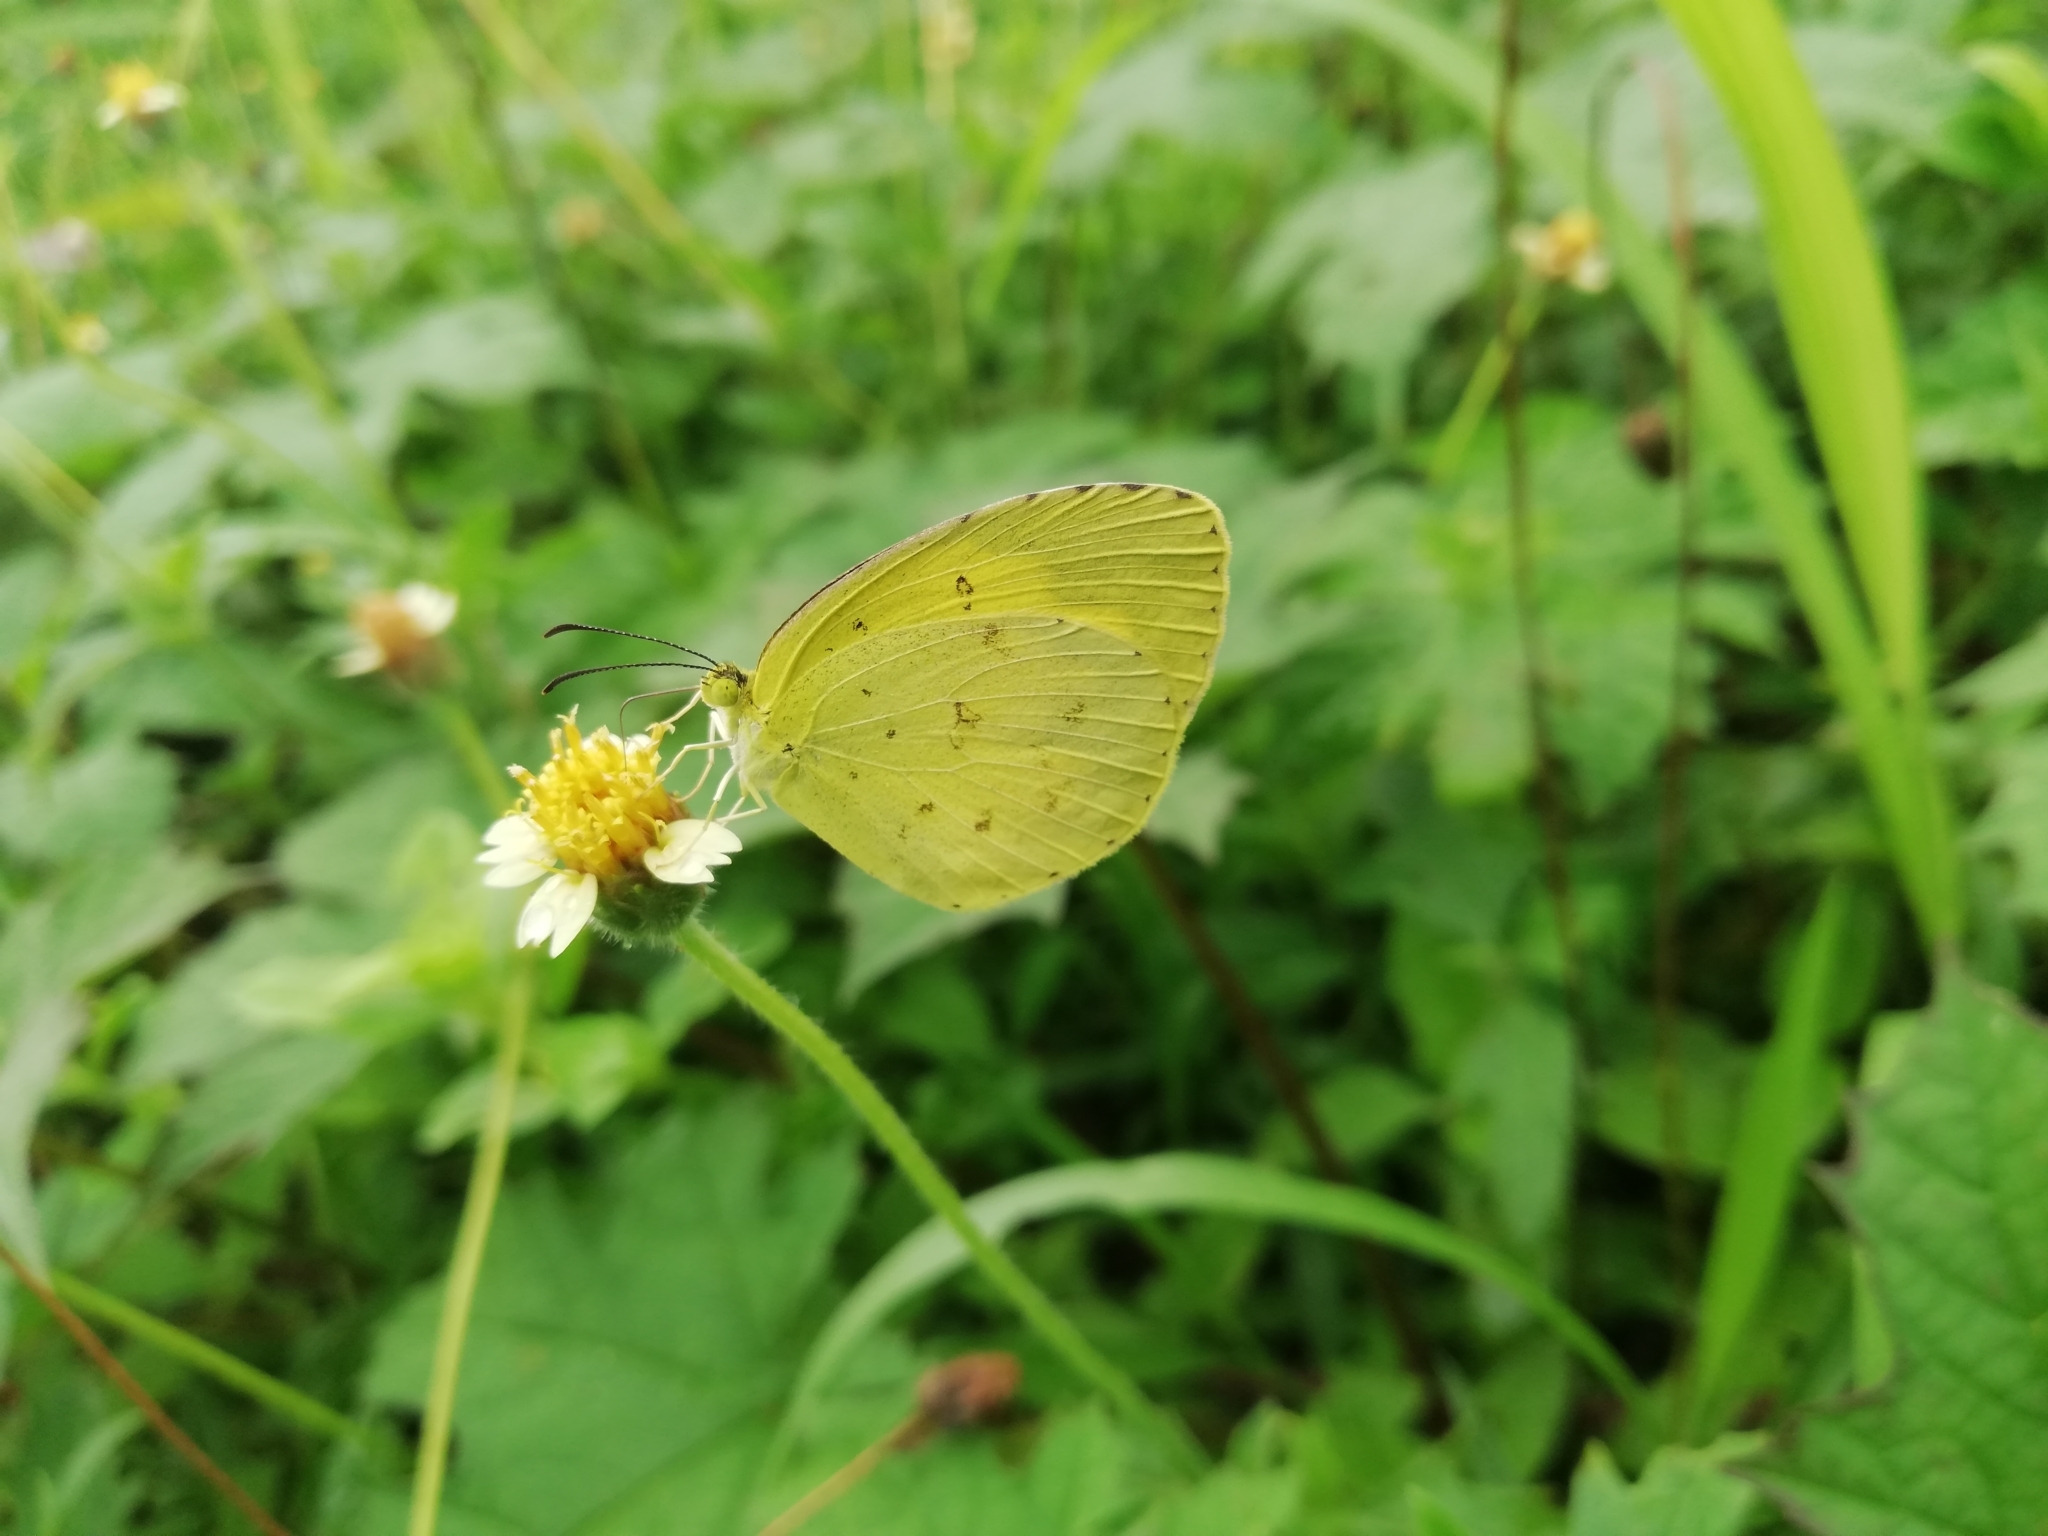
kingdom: Animalia
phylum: Arthropoda
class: Insecta
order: Lepidoptera
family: Pieridae
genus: Eurema
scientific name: Eurema hecabe
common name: Pale grass yellow
